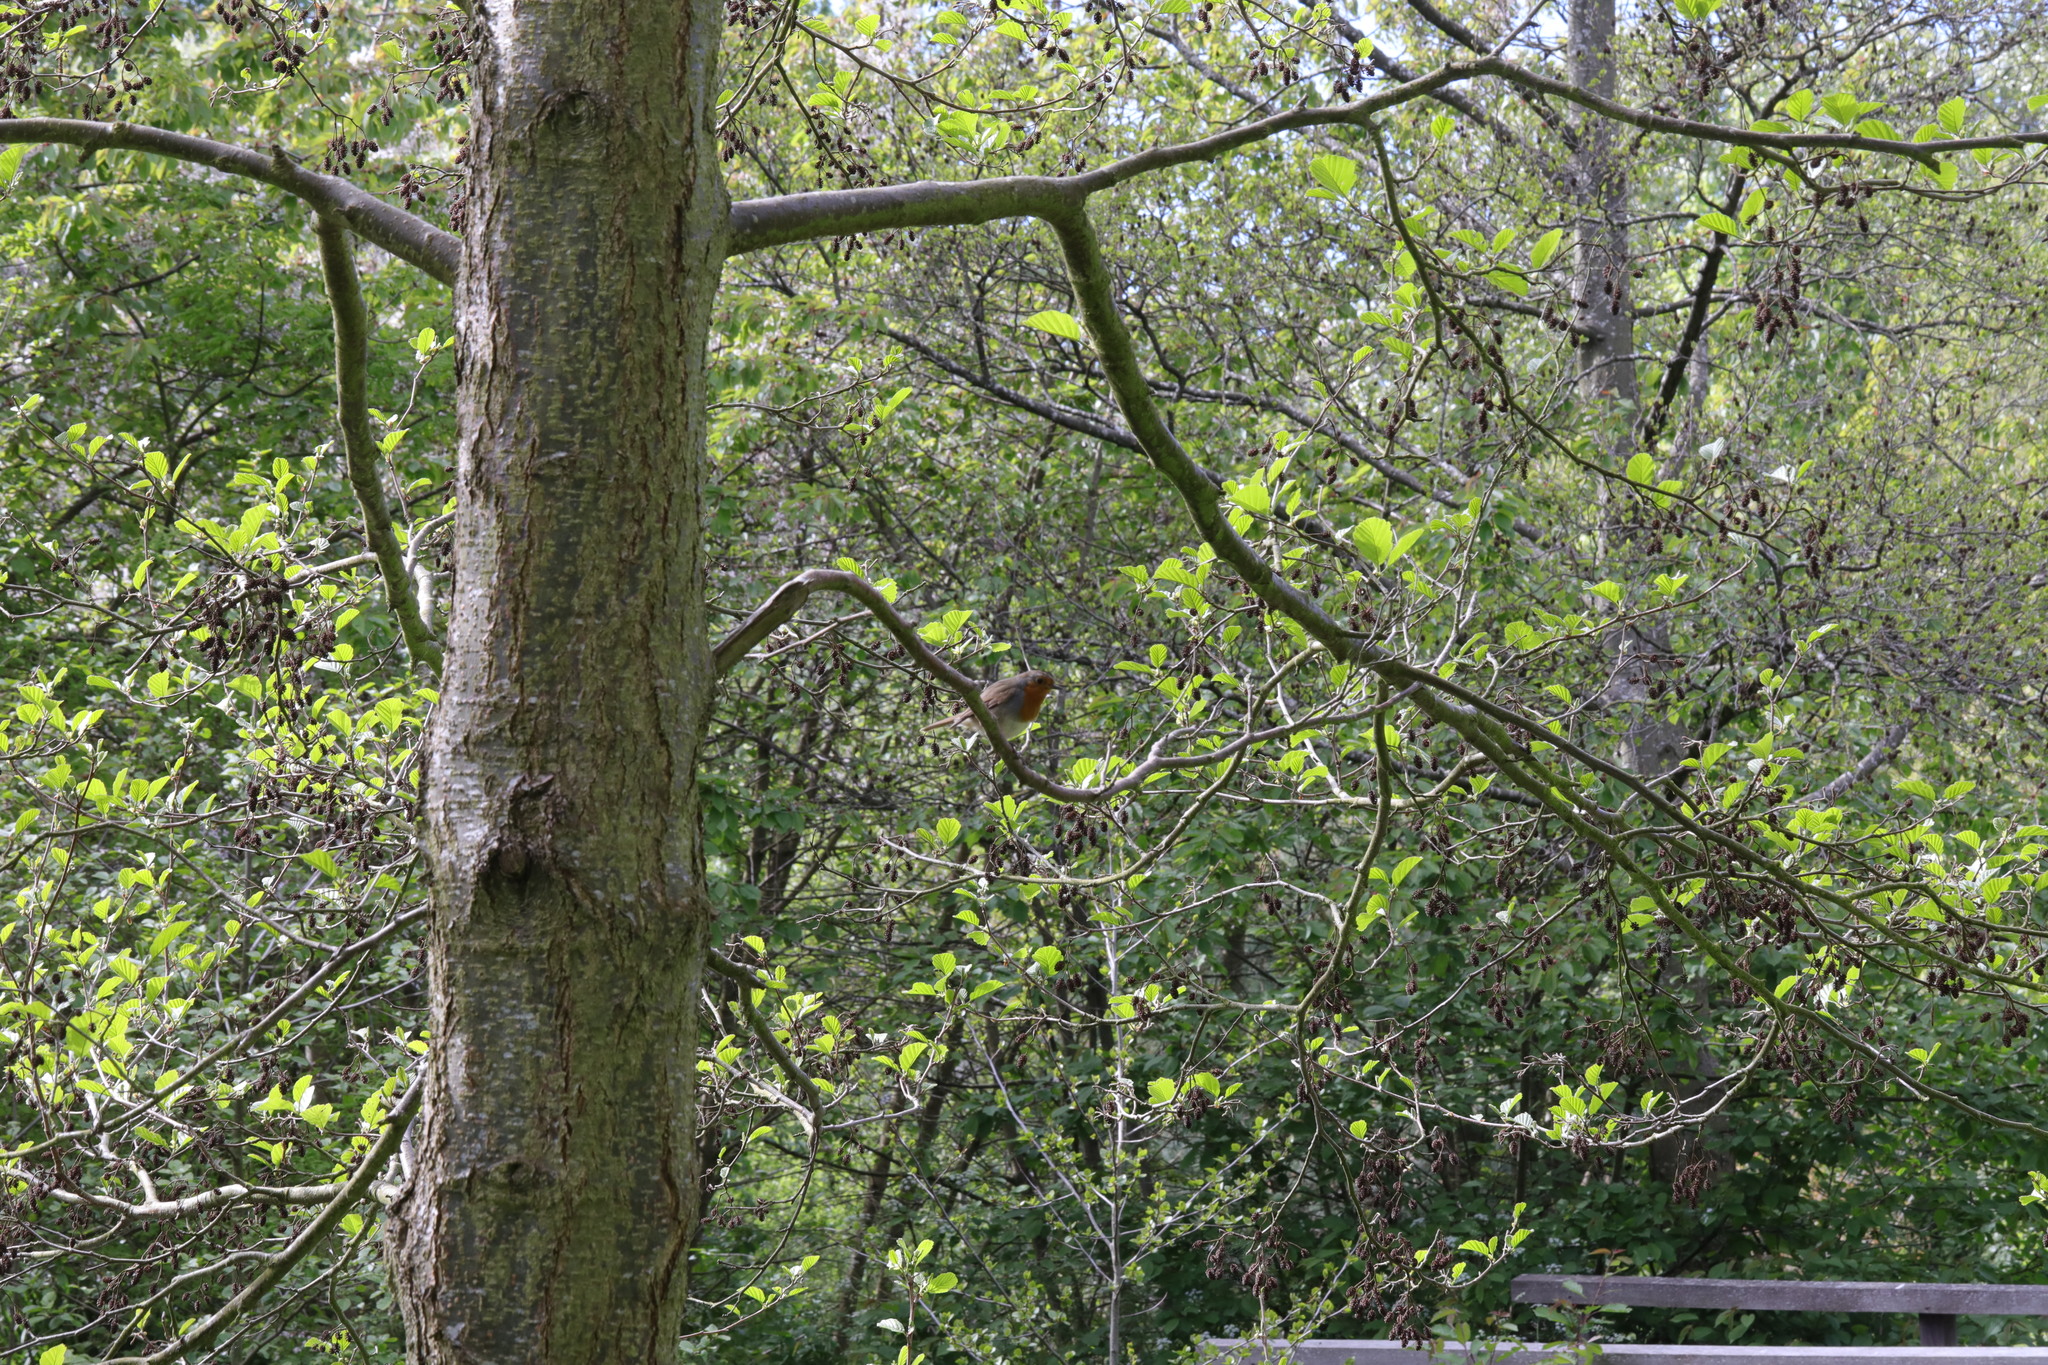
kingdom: Animalia
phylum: Chordata
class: Aves
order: Passeriformes
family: Muscicapidae
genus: Erithacus
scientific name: Erithacus rubecula
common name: European robin
